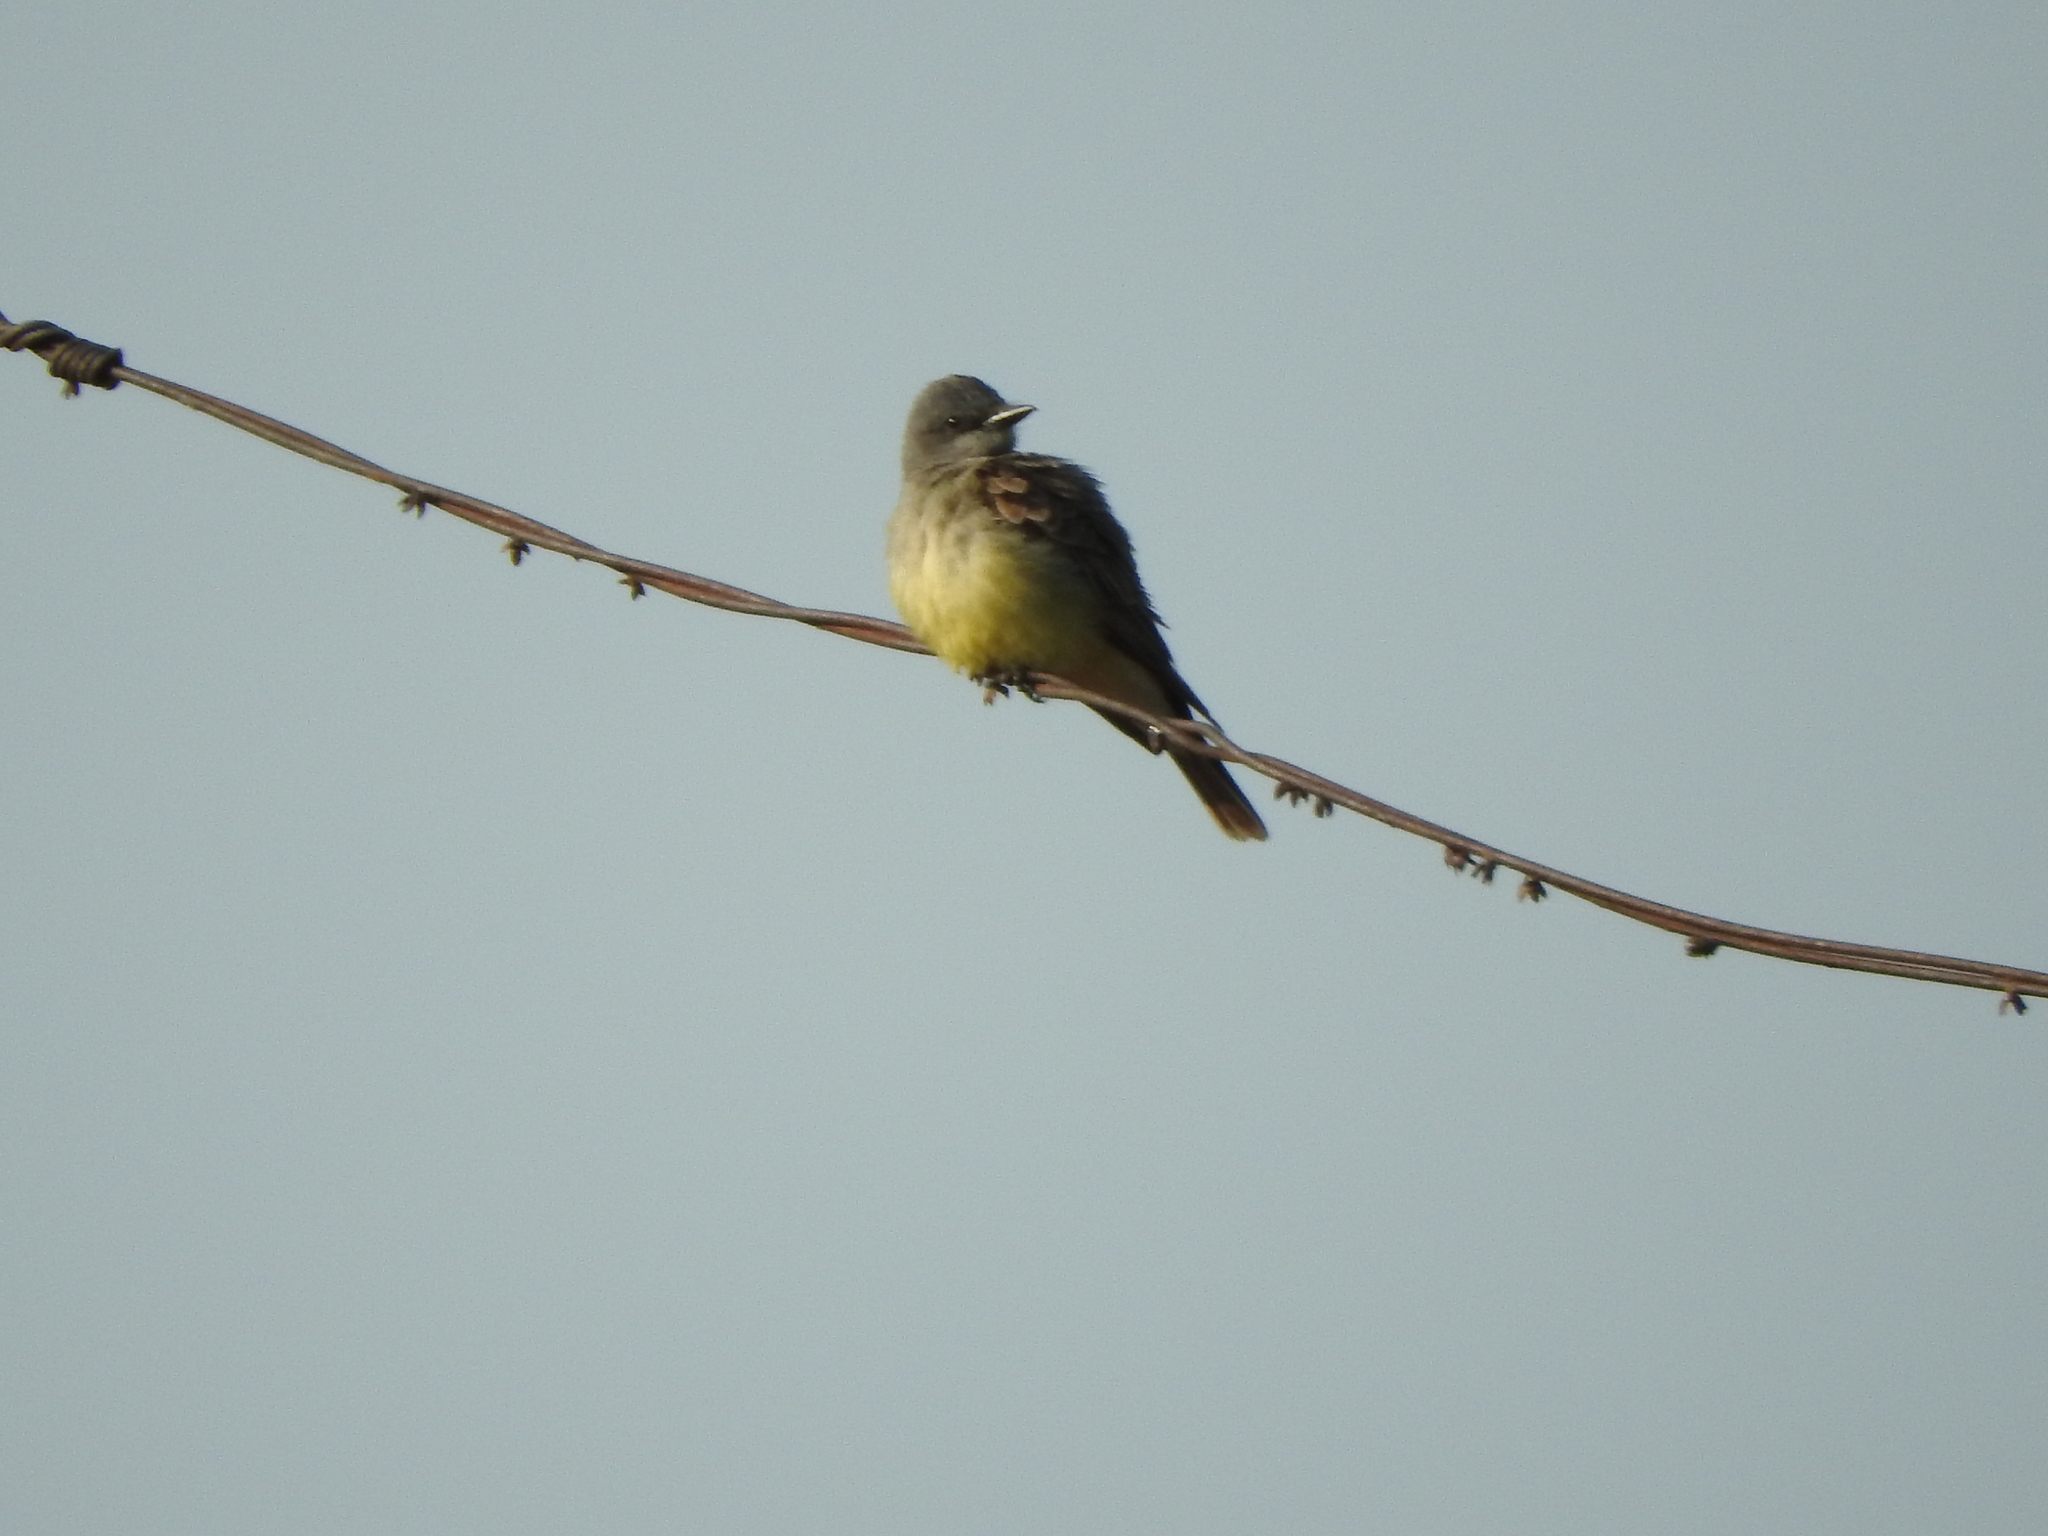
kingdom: Animalia
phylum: Chordata
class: Aves
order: Passeriformes
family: Tyrannidae
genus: Tyrannus
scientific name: Tyrannus vociferans
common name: Cassin's kingbird
